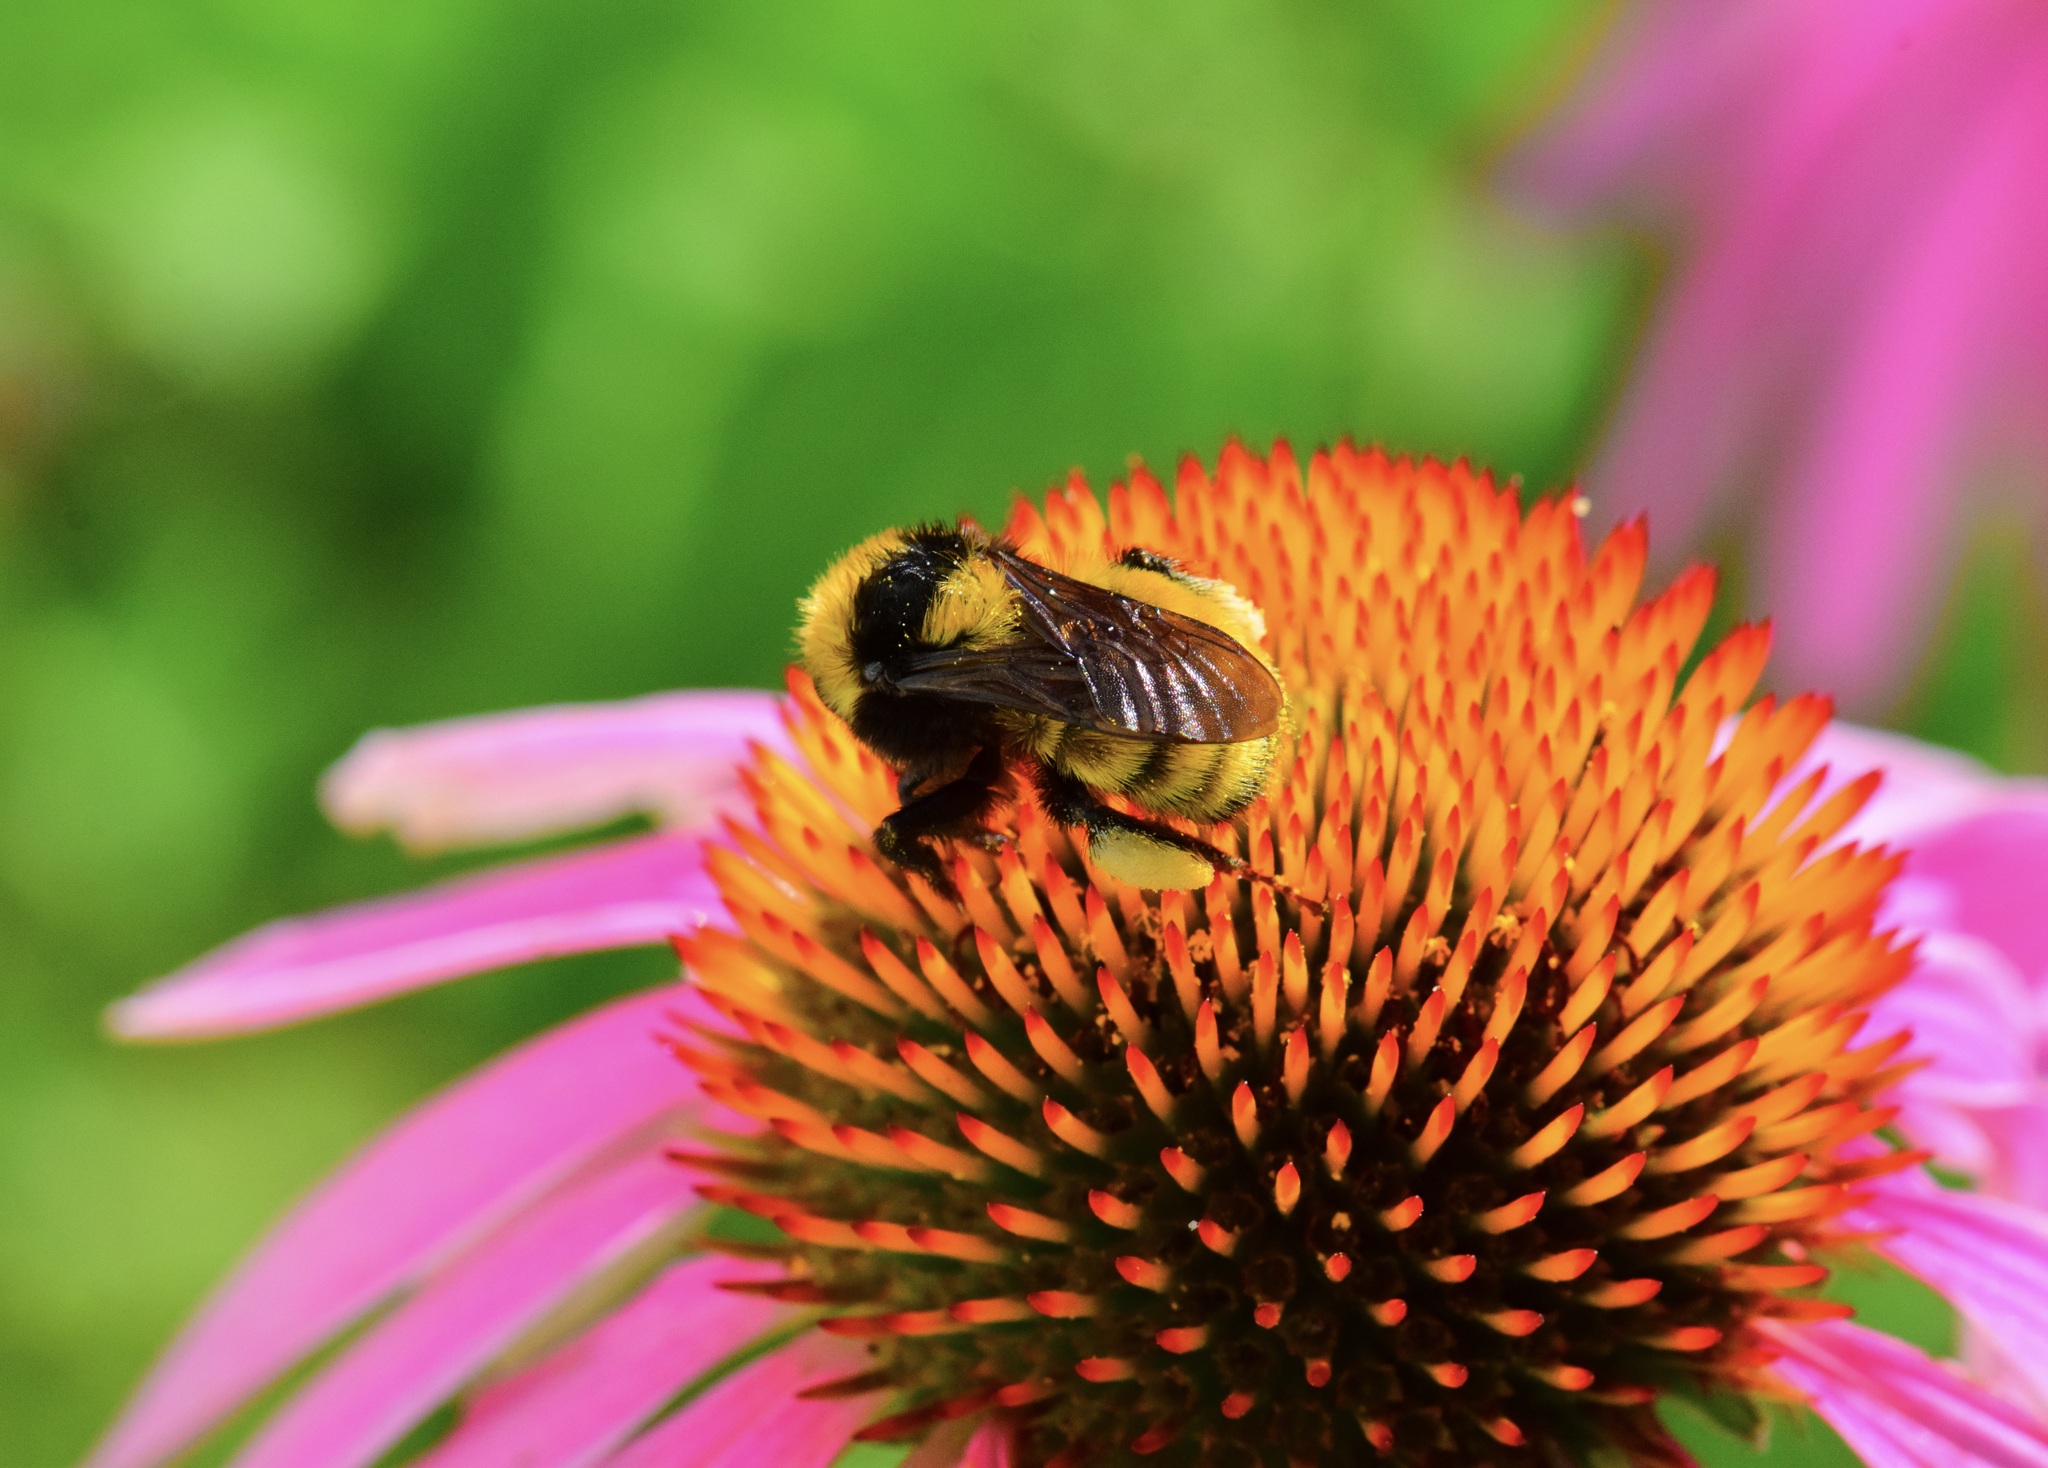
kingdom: Animalia
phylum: Arthropoda
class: Insecta
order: Hymenoptera
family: Apidae
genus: Bombus
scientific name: Bombus borealis
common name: Northern amber bumble bee
